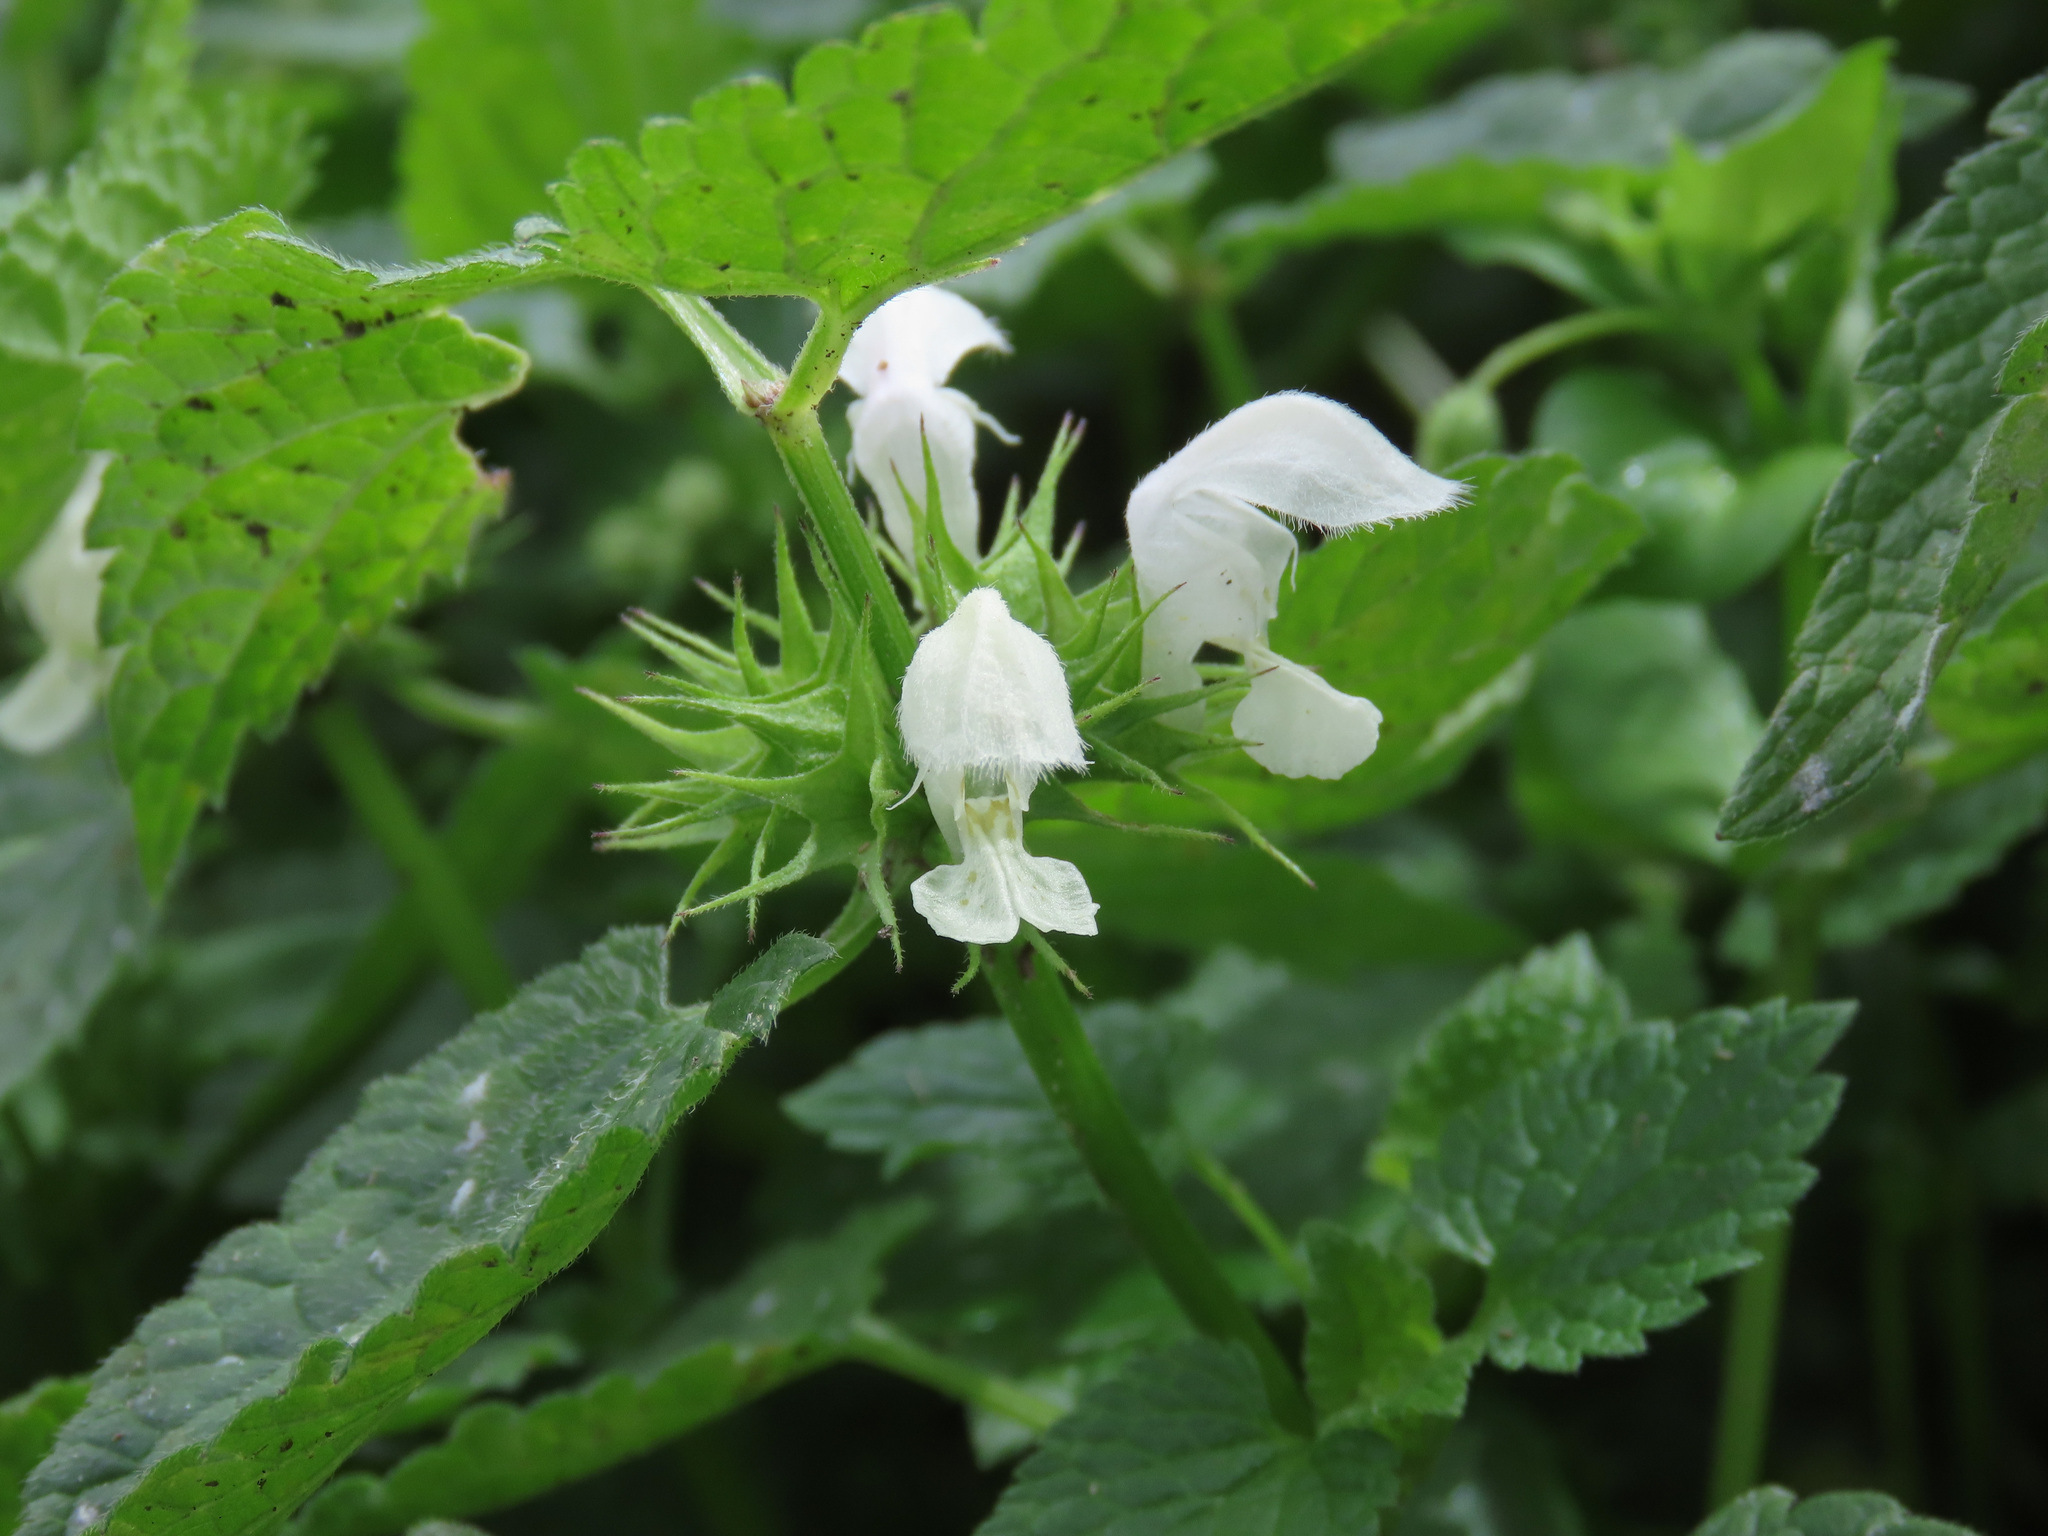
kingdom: Plantae
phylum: Tracheophyta
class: Magnoliopsida
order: Lamiales
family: Lamiaceae
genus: Lamium
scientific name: Lamium album
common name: White dead-nettle
